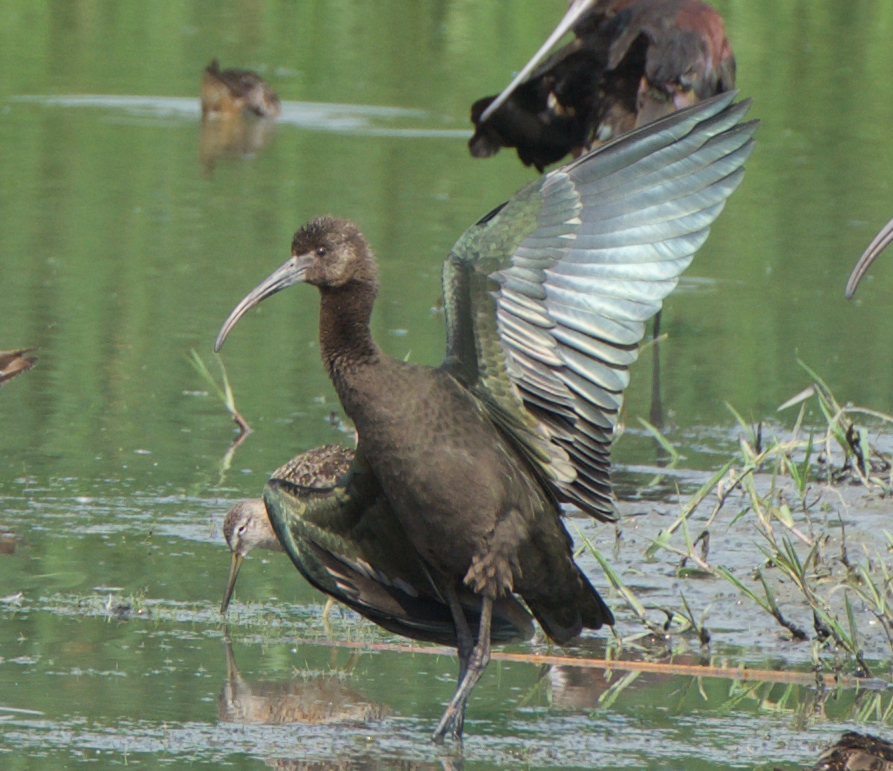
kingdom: Animalia
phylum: Chordata
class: Aves
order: Pelecaniformes
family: Threskiornithidae
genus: Plegadis
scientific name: Plegadis chihi
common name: White-faced ibis
